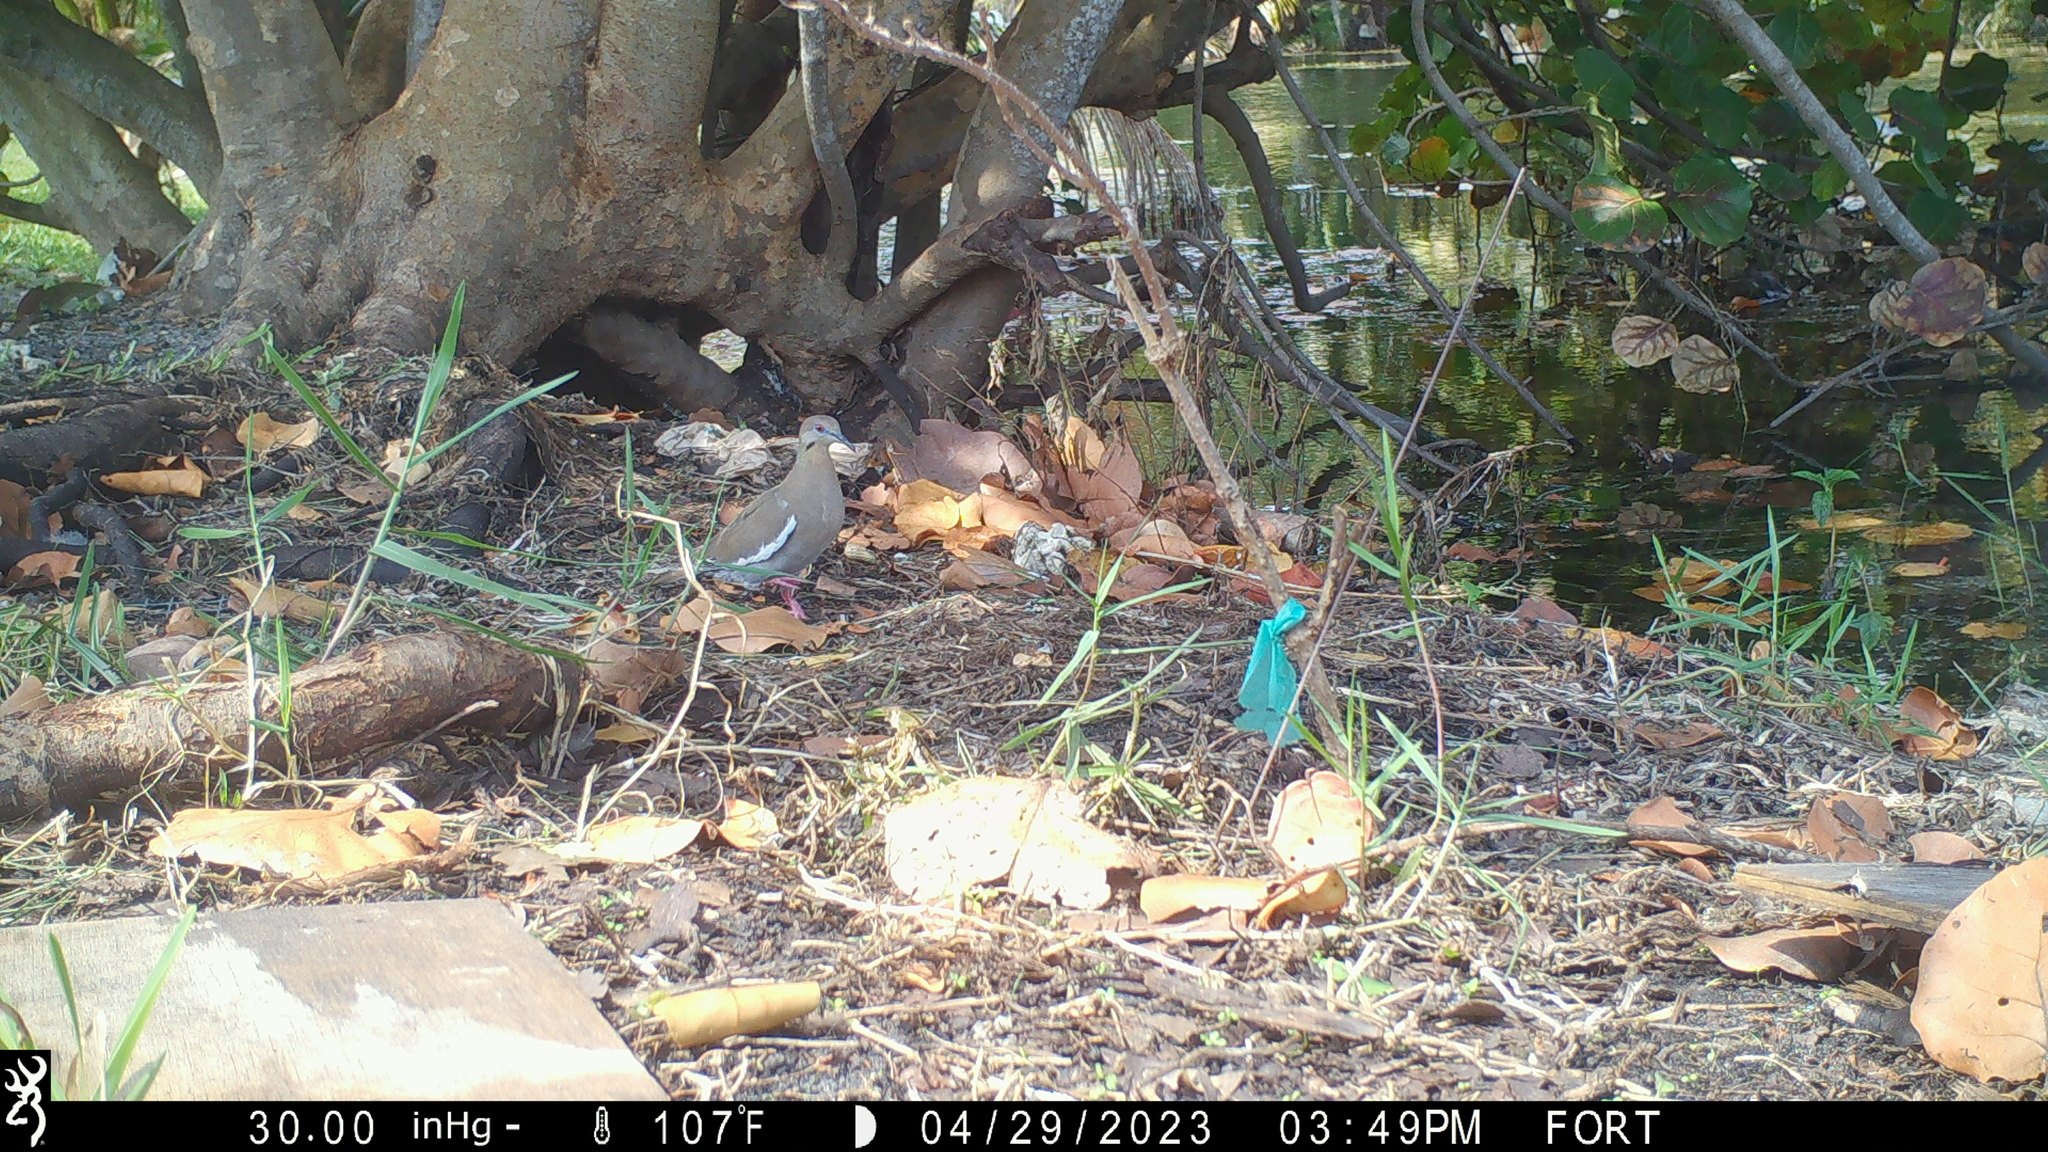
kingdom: Animalia
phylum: Chordata
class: Aves
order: Columbiformes
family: Columbidae
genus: Zenaida
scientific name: Zenaida asiatica
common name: White-winged dove
